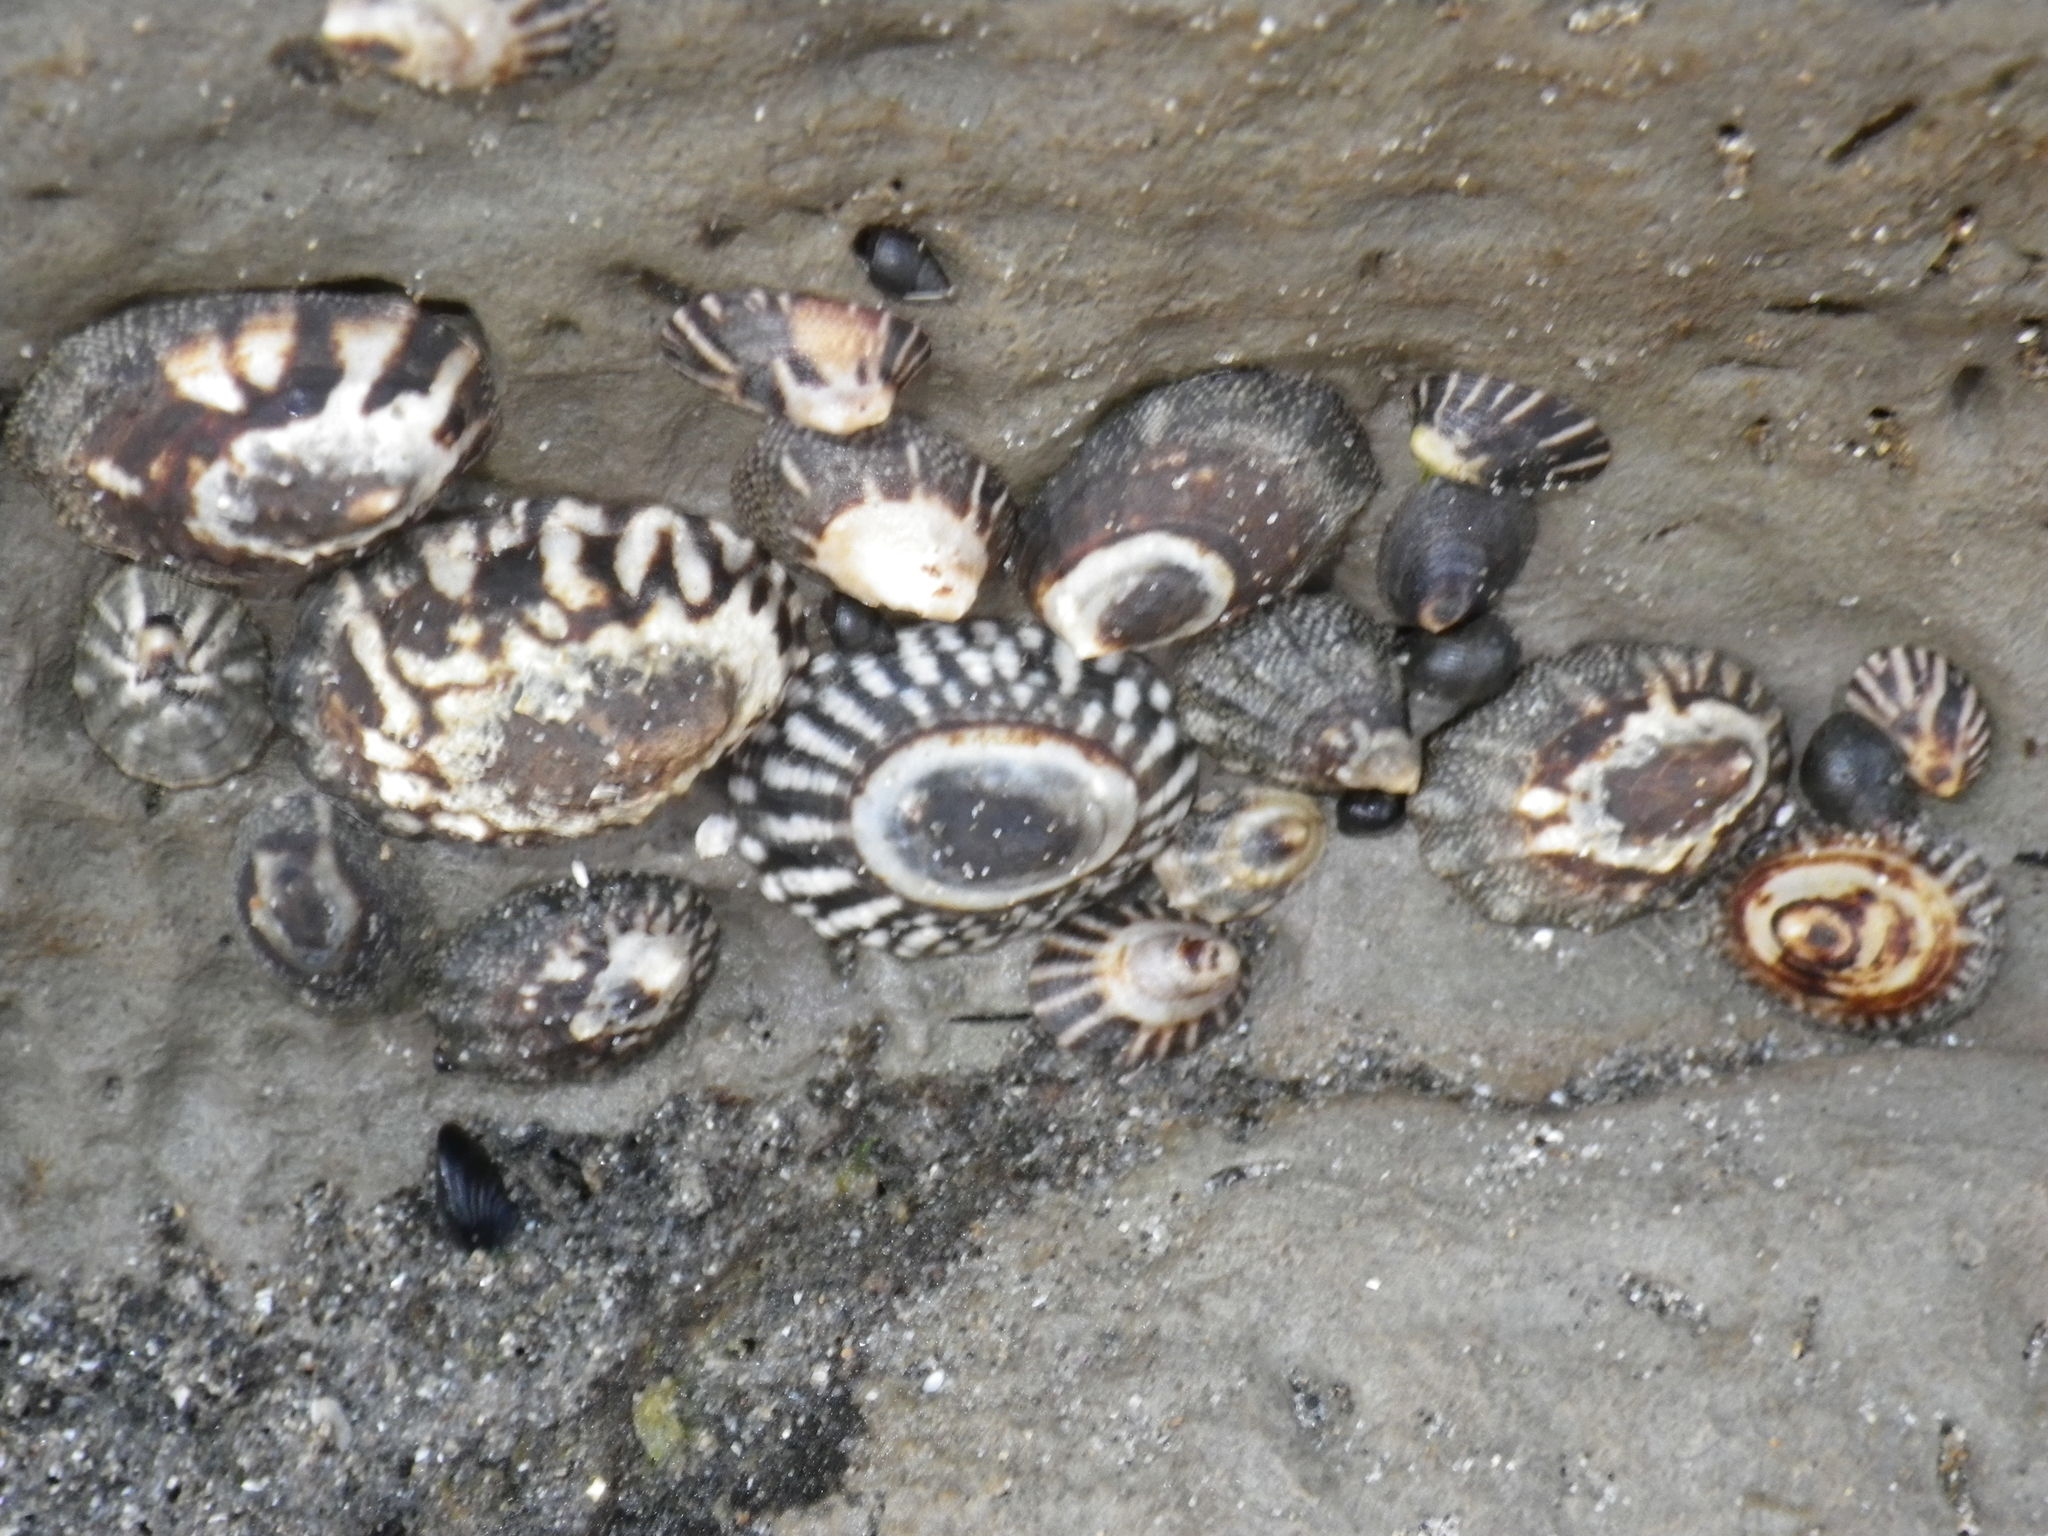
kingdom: Animalia
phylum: Mollusca
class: Gastropoda
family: Lottiidae
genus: Lottia
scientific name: Lottia digitalis
